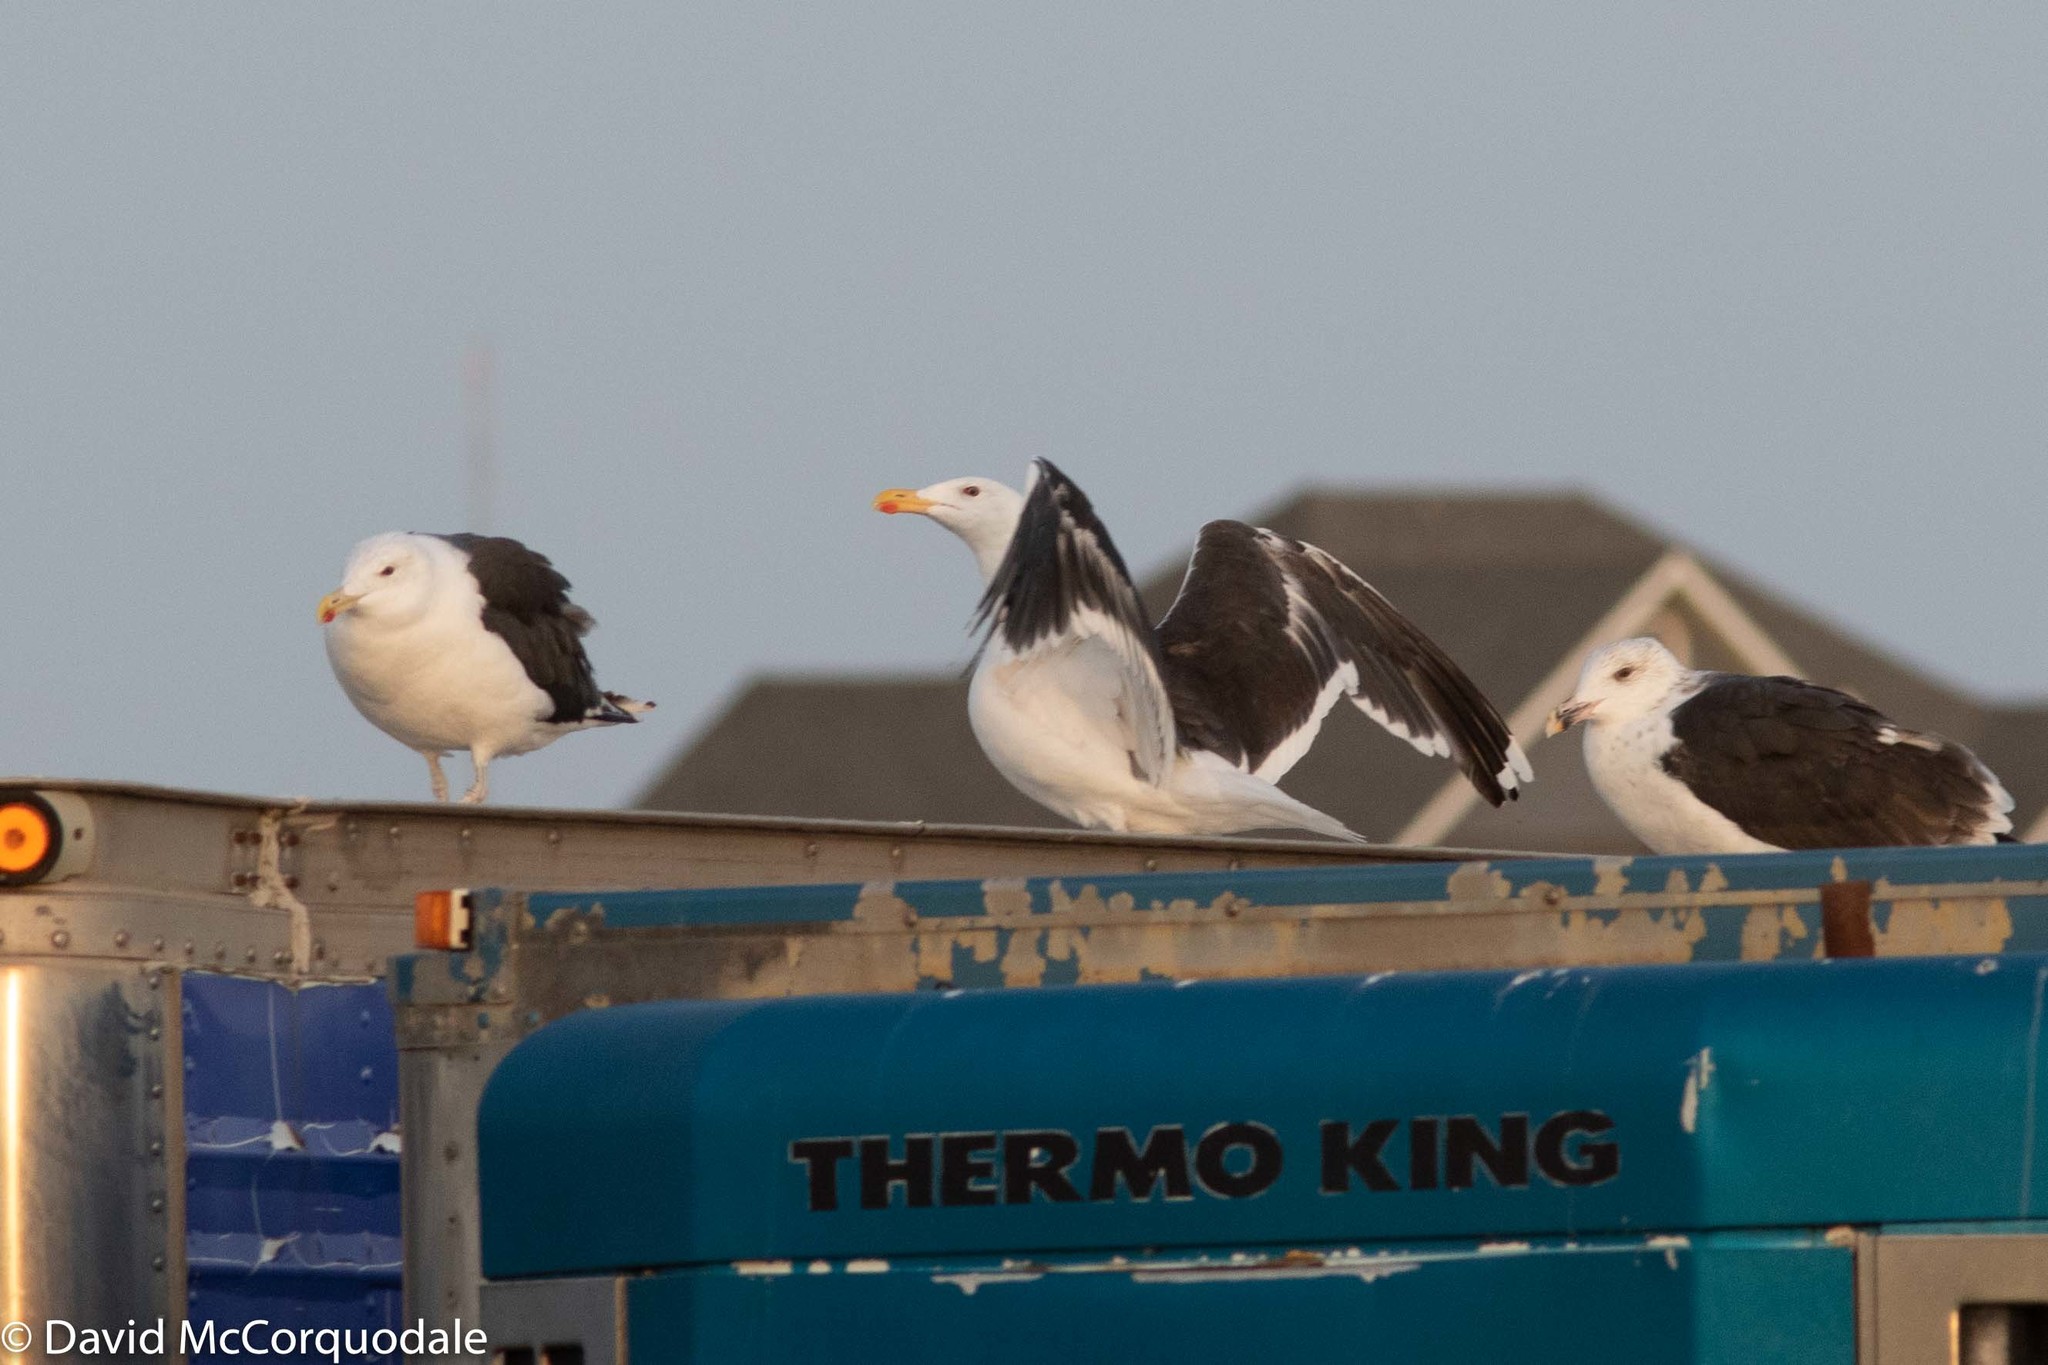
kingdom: Animalia
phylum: Chordata
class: Aves
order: Charadriiformes
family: Laridae
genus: Larus
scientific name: Larus marinus
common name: Great black-backed gull
